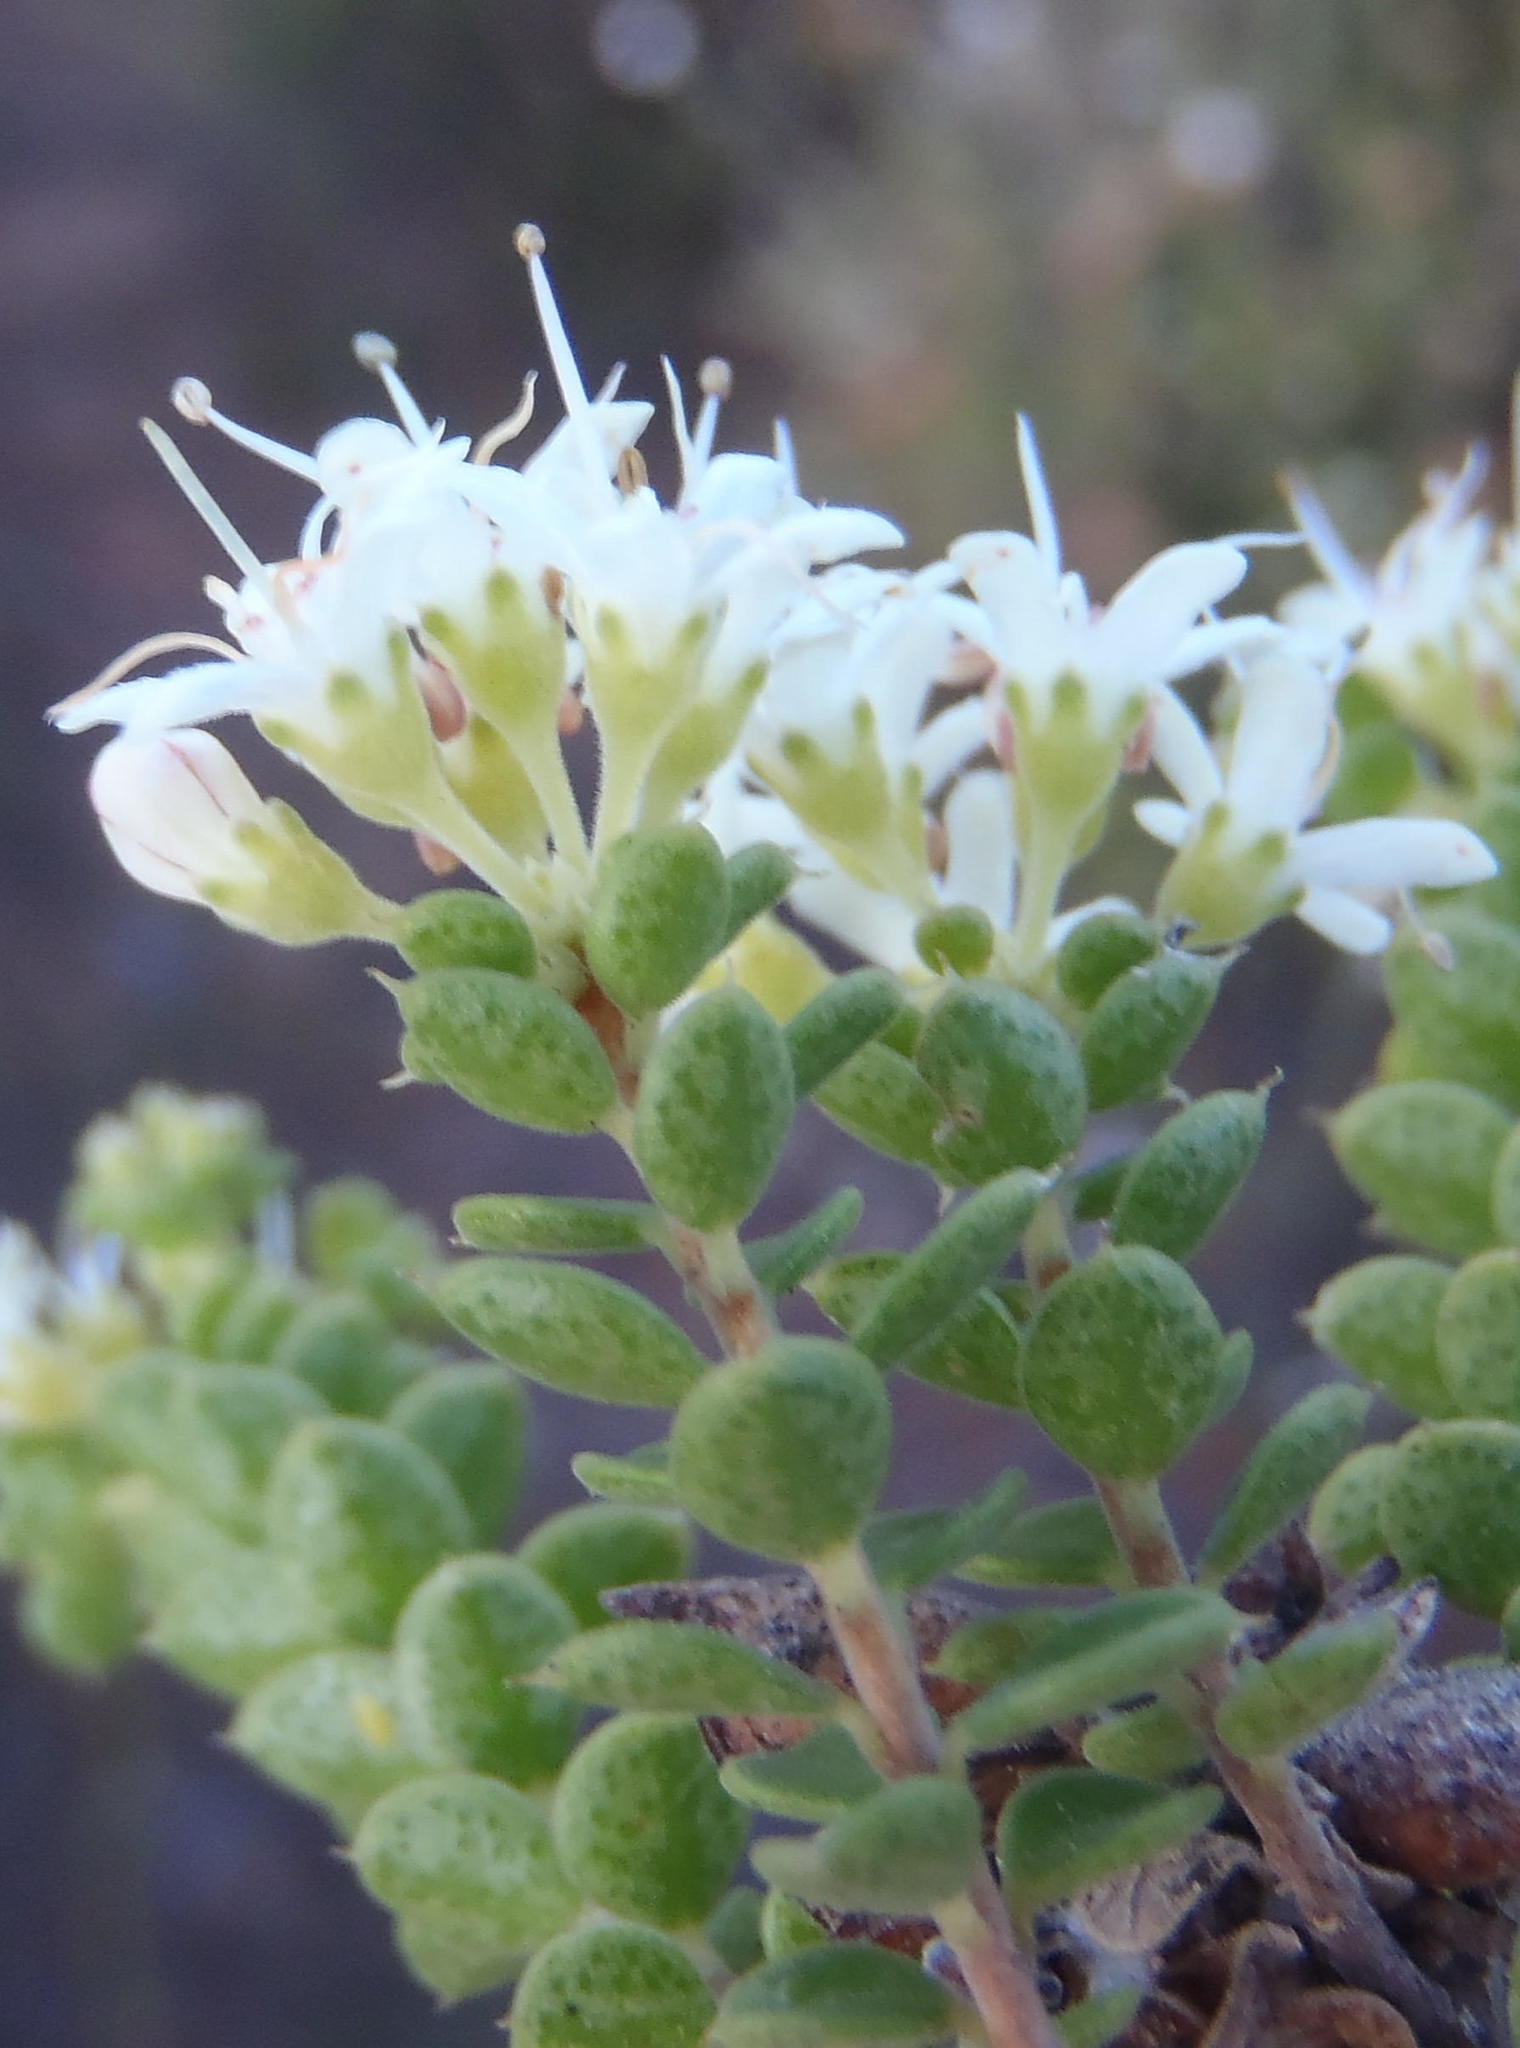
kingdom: Plantae
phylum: Tracheophyta
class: Magnoliopsida
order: Sapindales
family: Rutaceae
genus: Agathosma
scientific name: Agathosma recurvifolia
